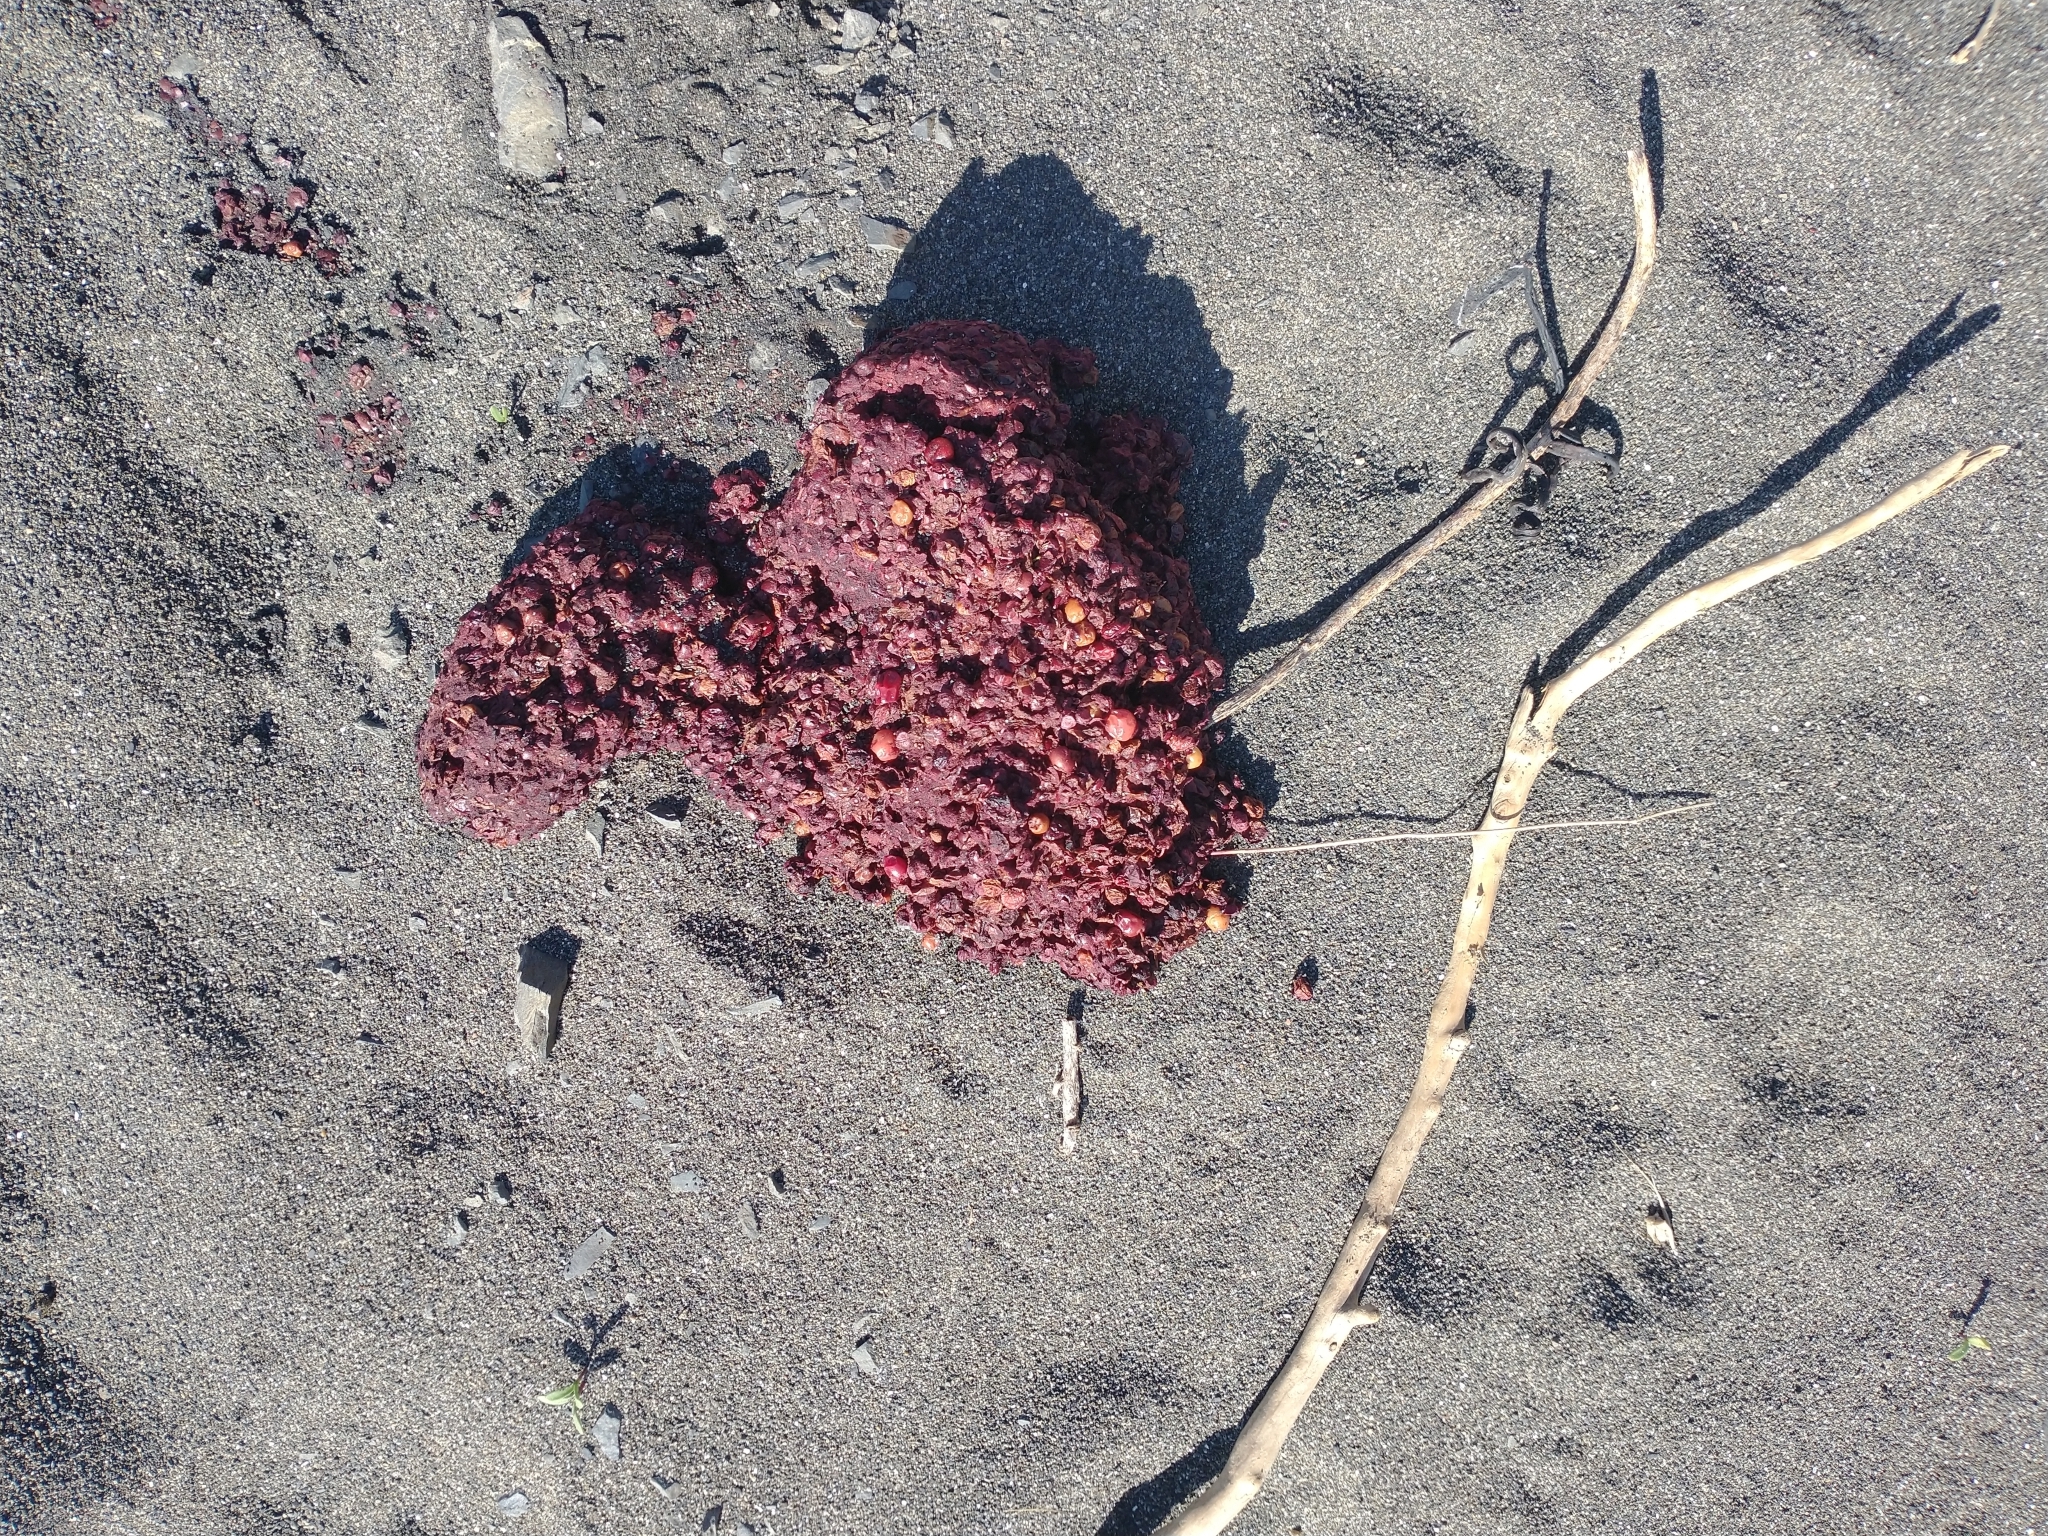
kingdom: Animalia
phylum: Chordata
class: Mammalia
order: Carnivora
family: Ursidae
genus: Ursus
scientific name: Ursus americanus
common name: American black bear
